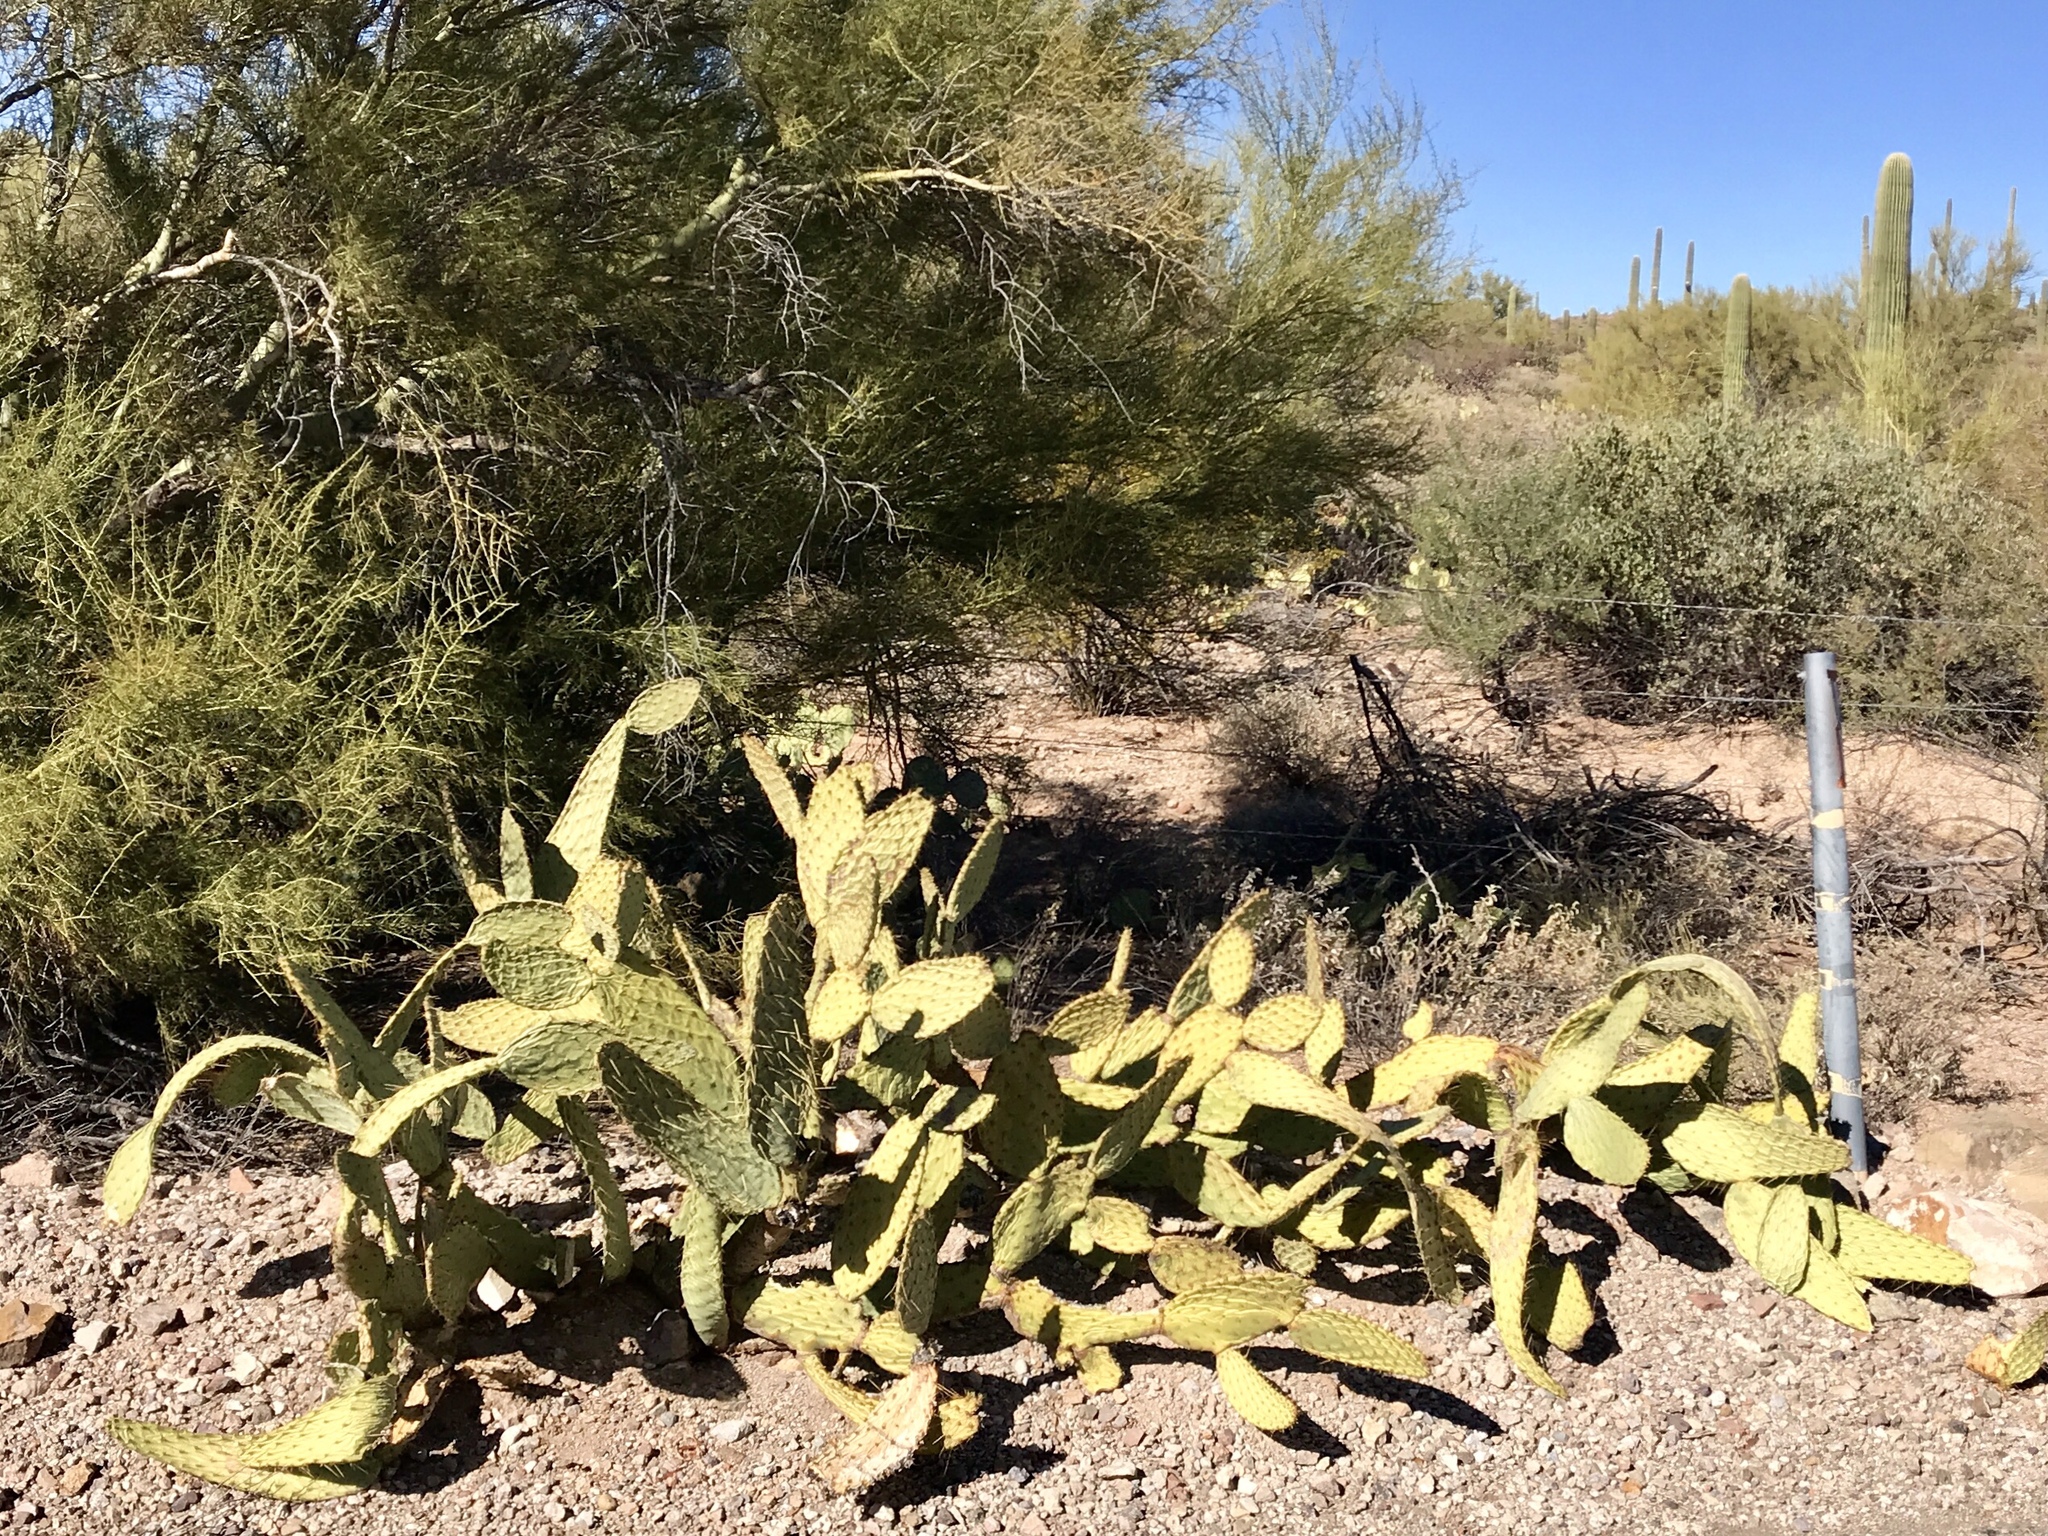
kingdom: Plantae
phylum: Tracheophyta
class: Magnoliopsida
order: Caryophyllales
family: Cactaceae
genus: Opuntia
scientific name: Opuntia engelmannii
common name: Cactus-apple
